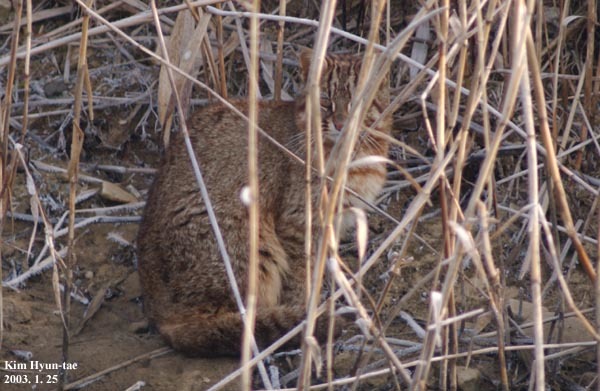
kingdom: Animalia
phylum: Chordata
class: Mammalia
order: Carnivora
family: Felidae
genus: Prionailurus
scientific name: Prionailurus bengalensis
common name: Leopard cat
